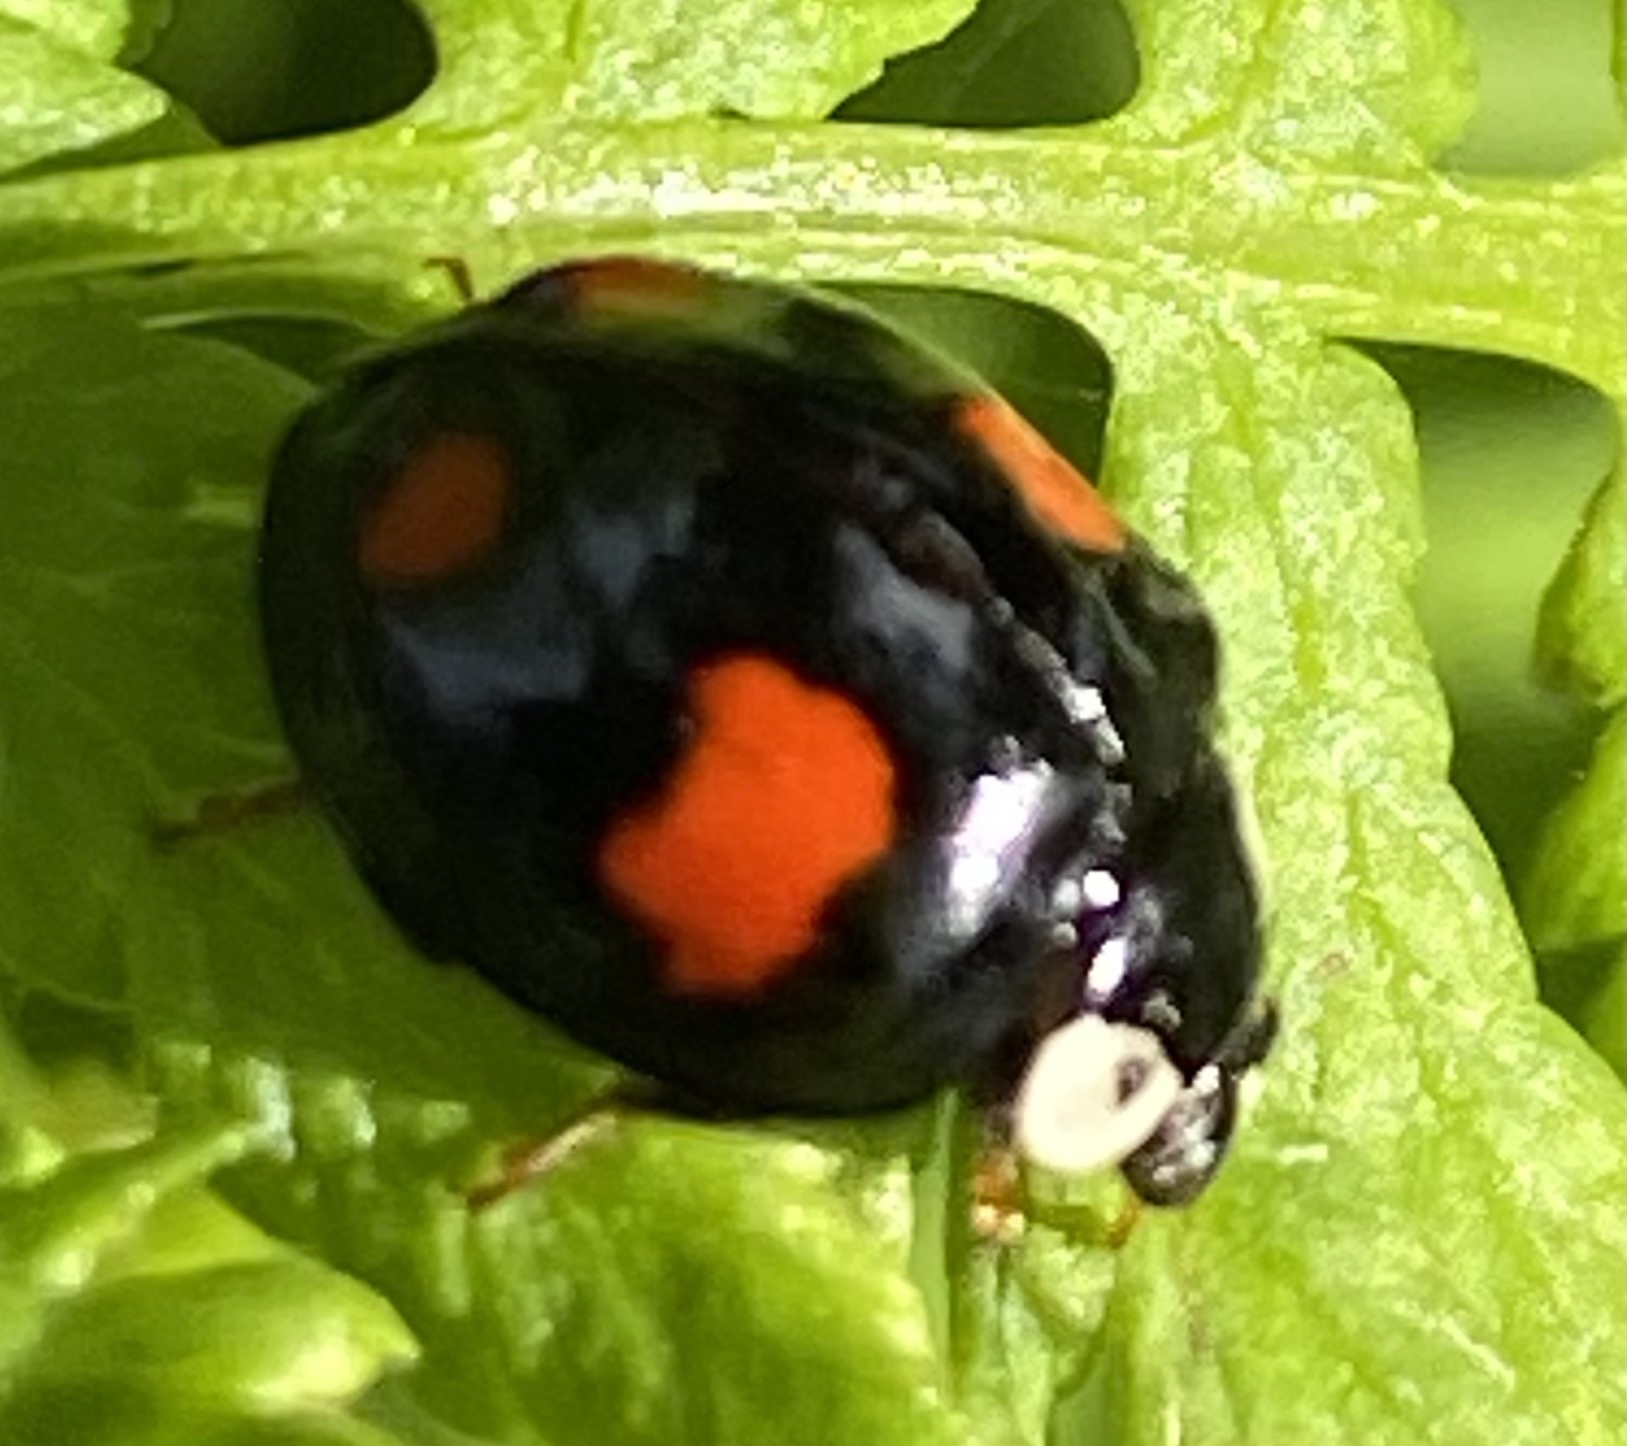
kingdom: Animalia
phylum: Arthropoda
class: Insecta
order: Coleoptera
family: Coccinellidae
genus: Harmonia
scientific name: Harmonia axyridis
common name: Harlequin ladybird
